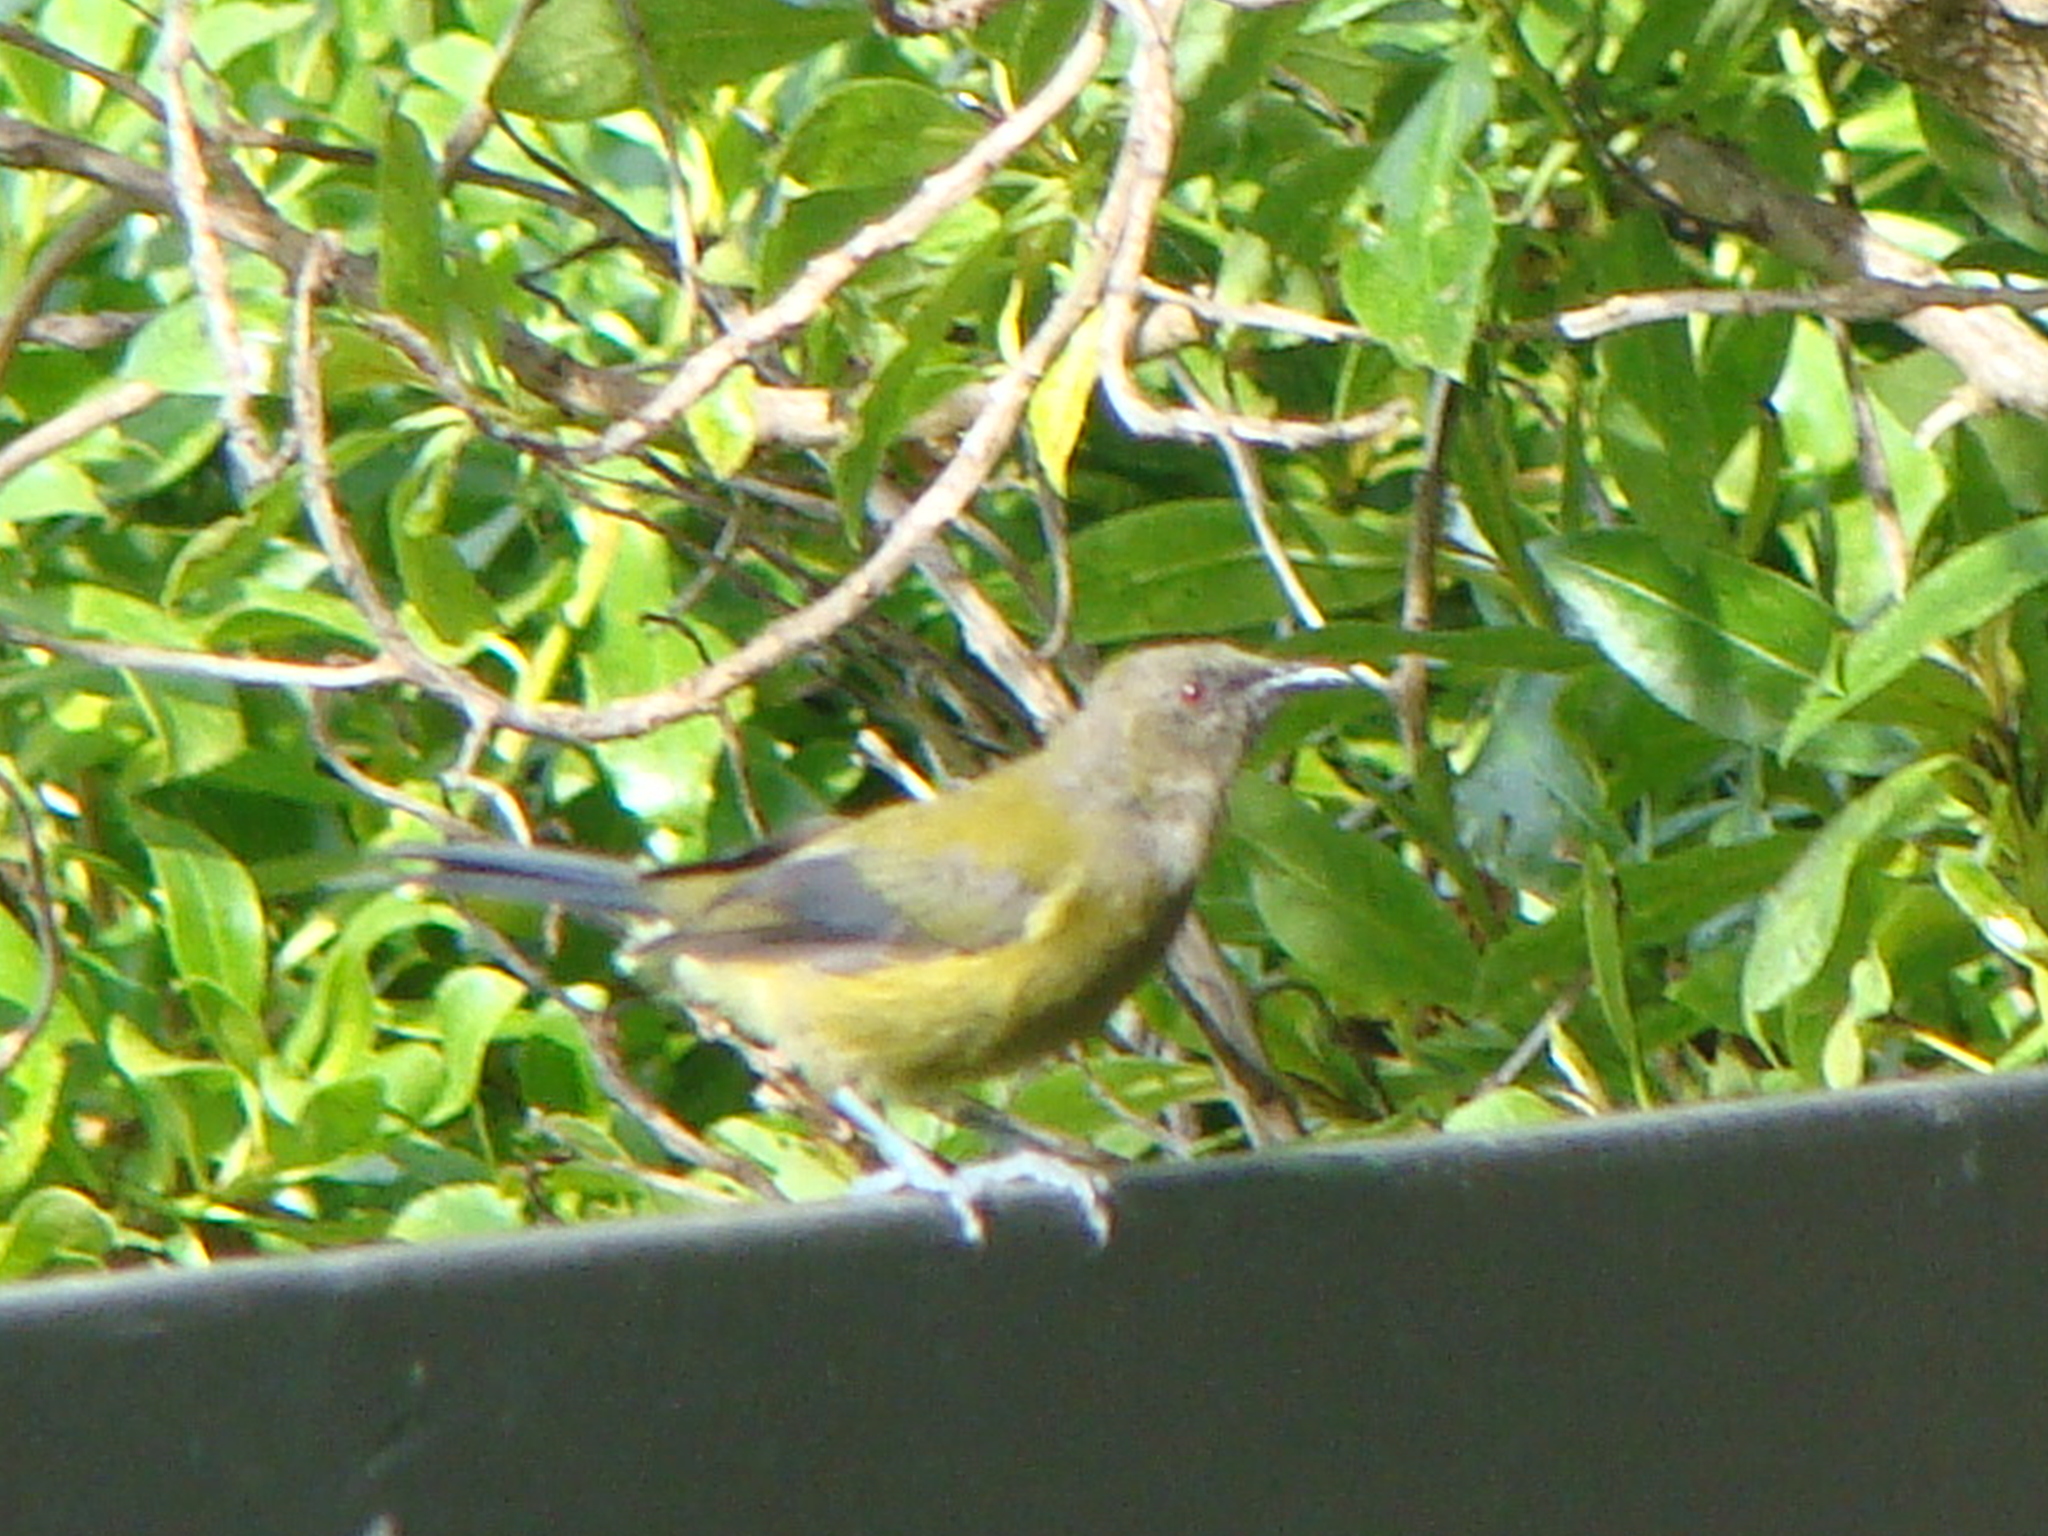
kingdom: Animalia
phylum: Chordata
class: Aves
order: Passeriformes
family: Meliphagidae
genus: Anthornis
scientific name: Anthornis melanura
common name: New zealand bellbird
